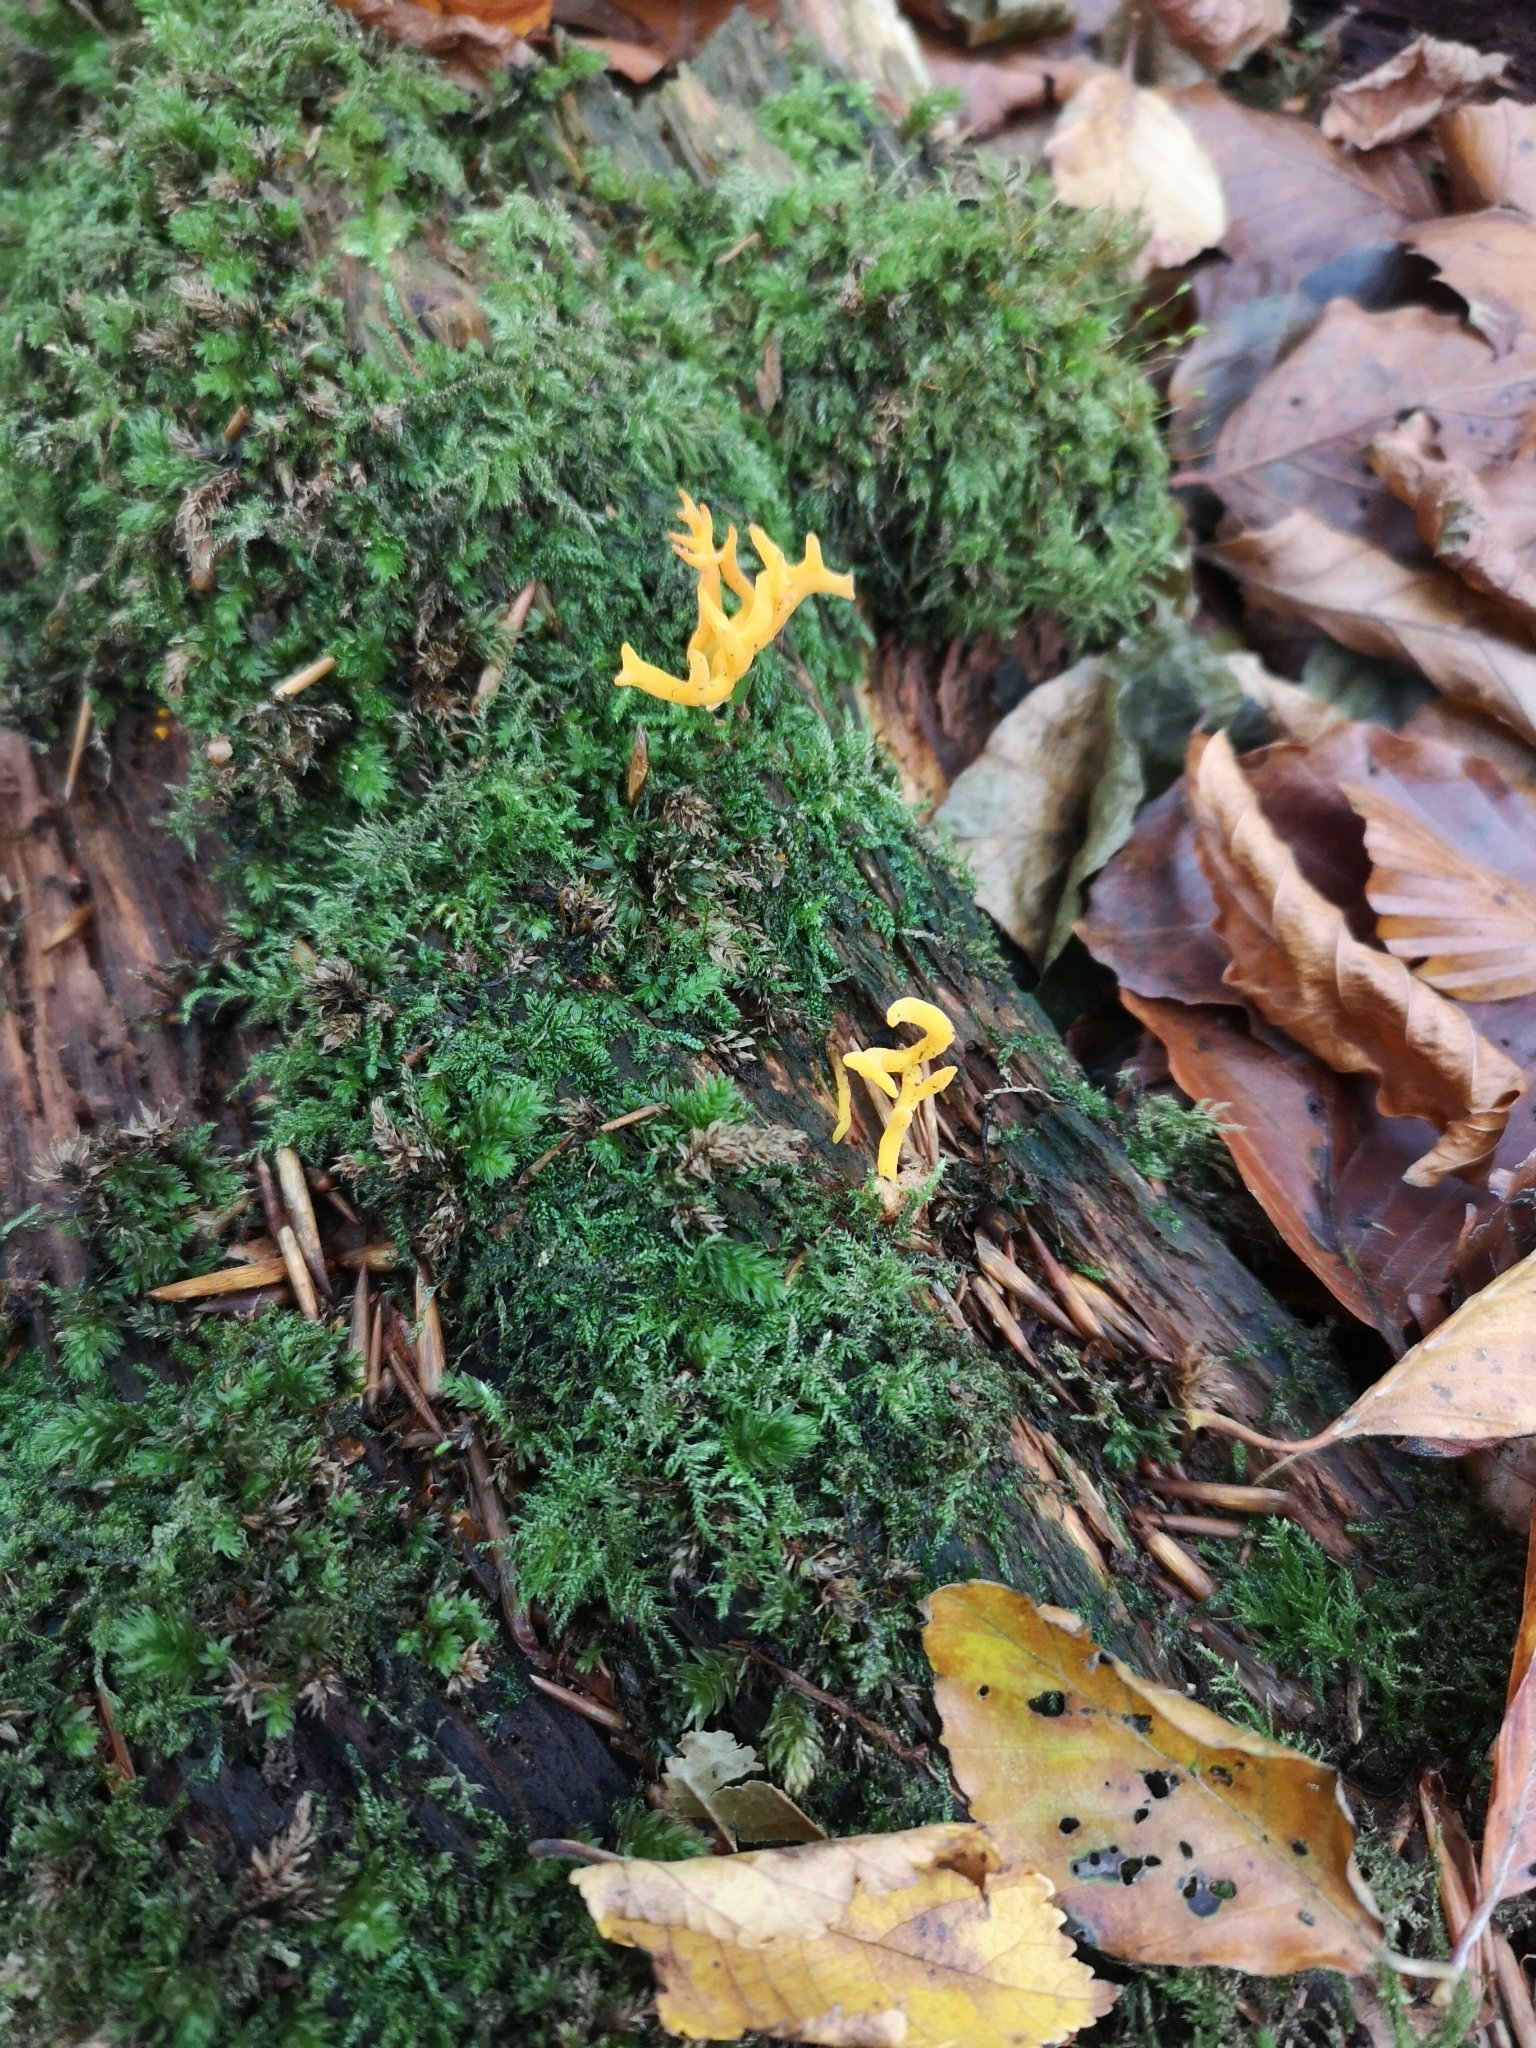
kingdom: Fungi
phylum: Basidiomycota
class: Dacrymycetes
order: Dacrymycetales
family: Dacrymycetaceae
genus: Calocera
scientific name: Calocera viscosa
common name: Yellow stagshorn
